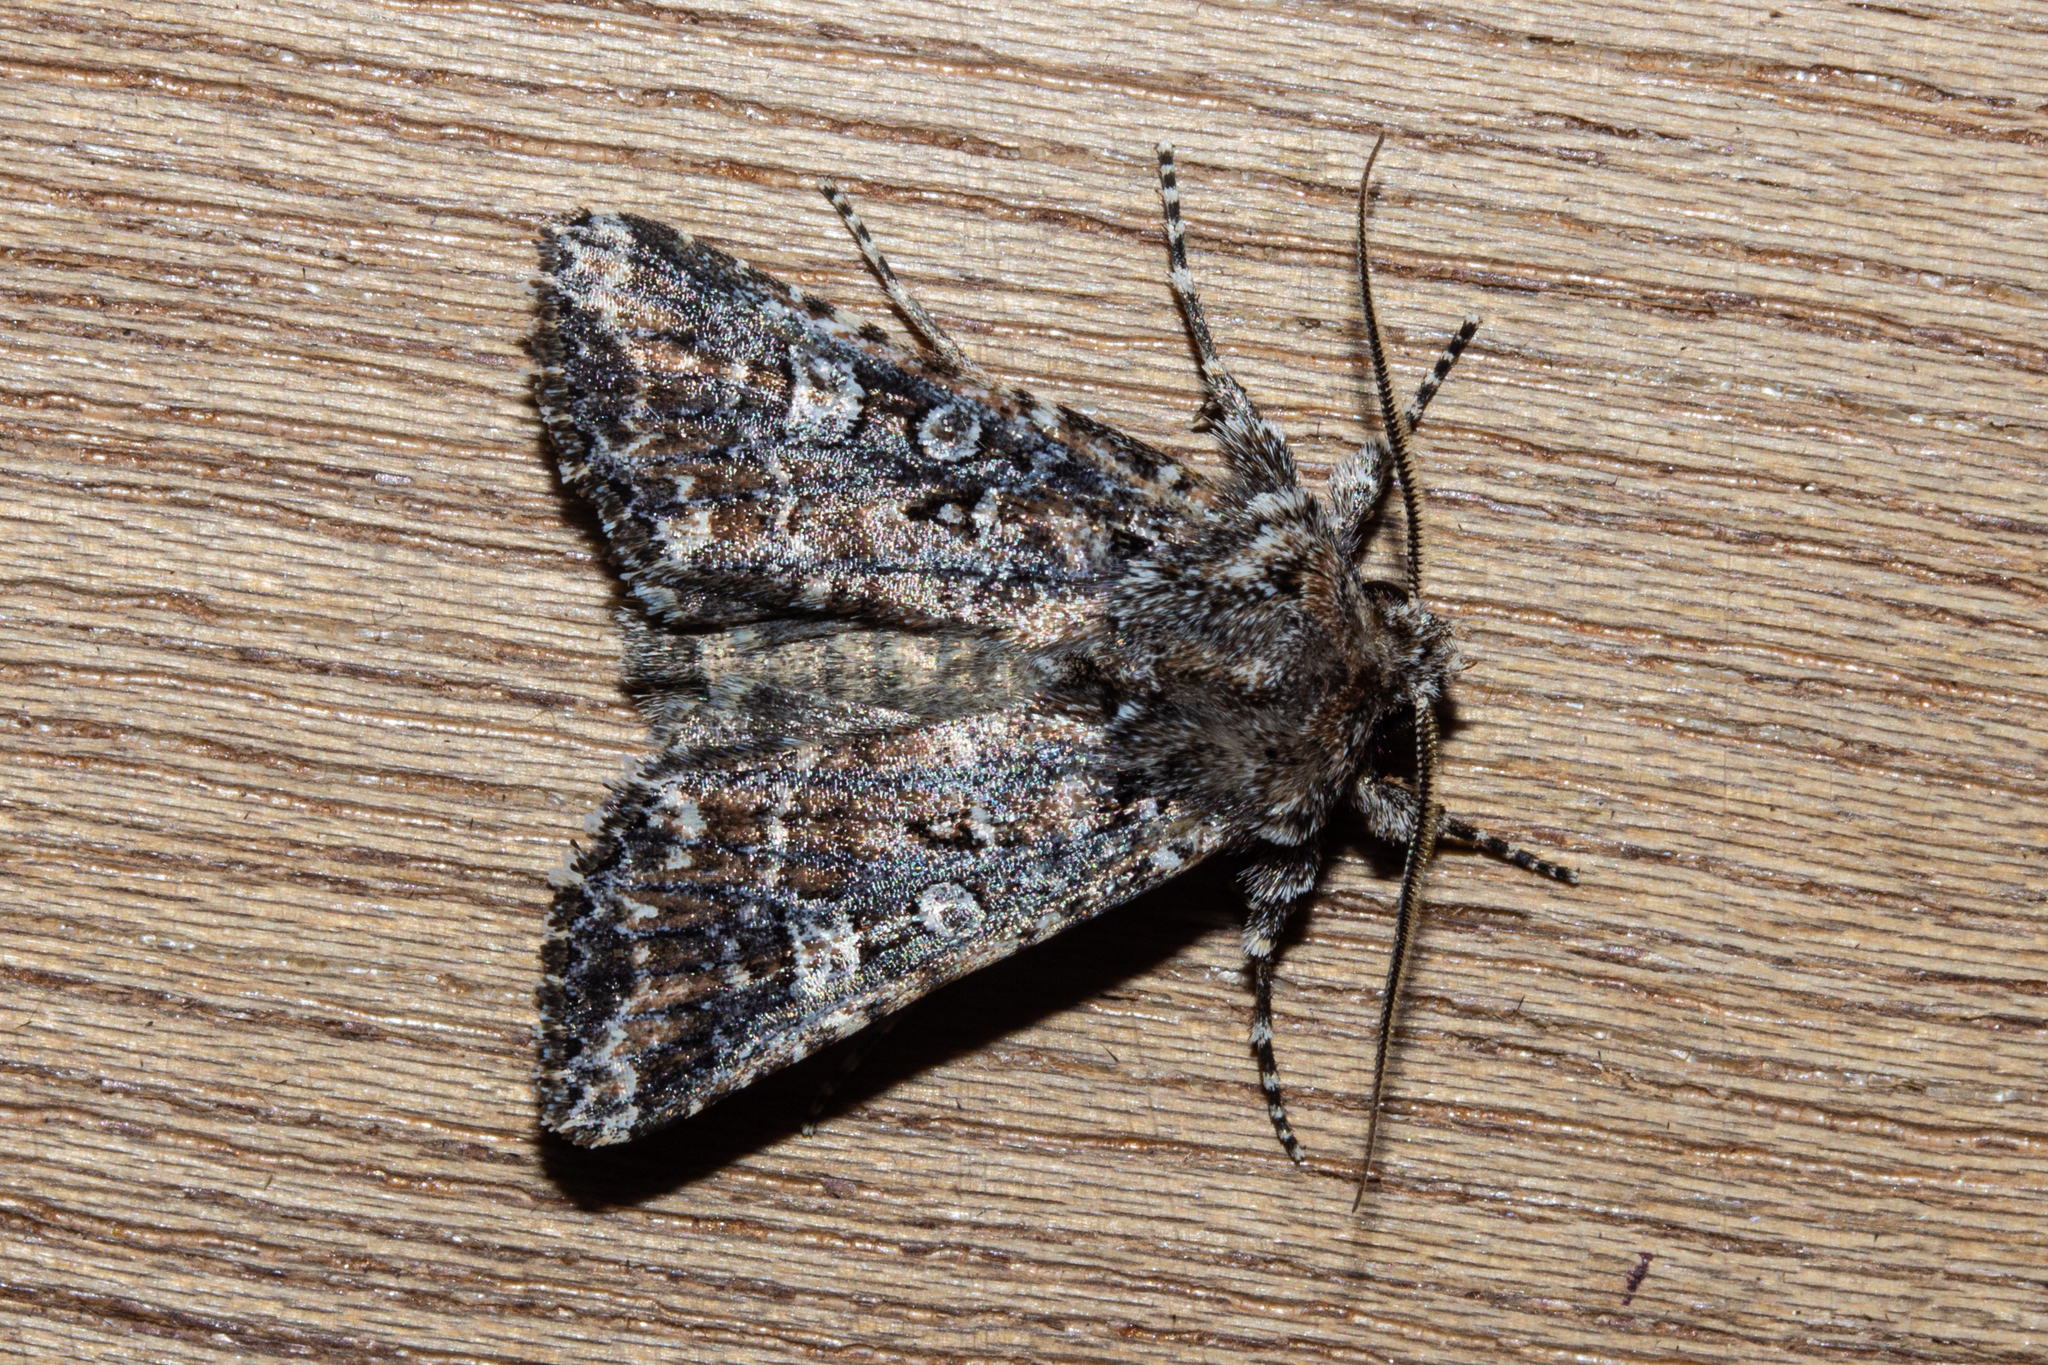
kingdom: Animalia
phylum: Arthropoda
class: Insecta
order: Lepidoptera
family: Noctuidae
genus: Ichneutica
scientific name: Ichneutica lithias
